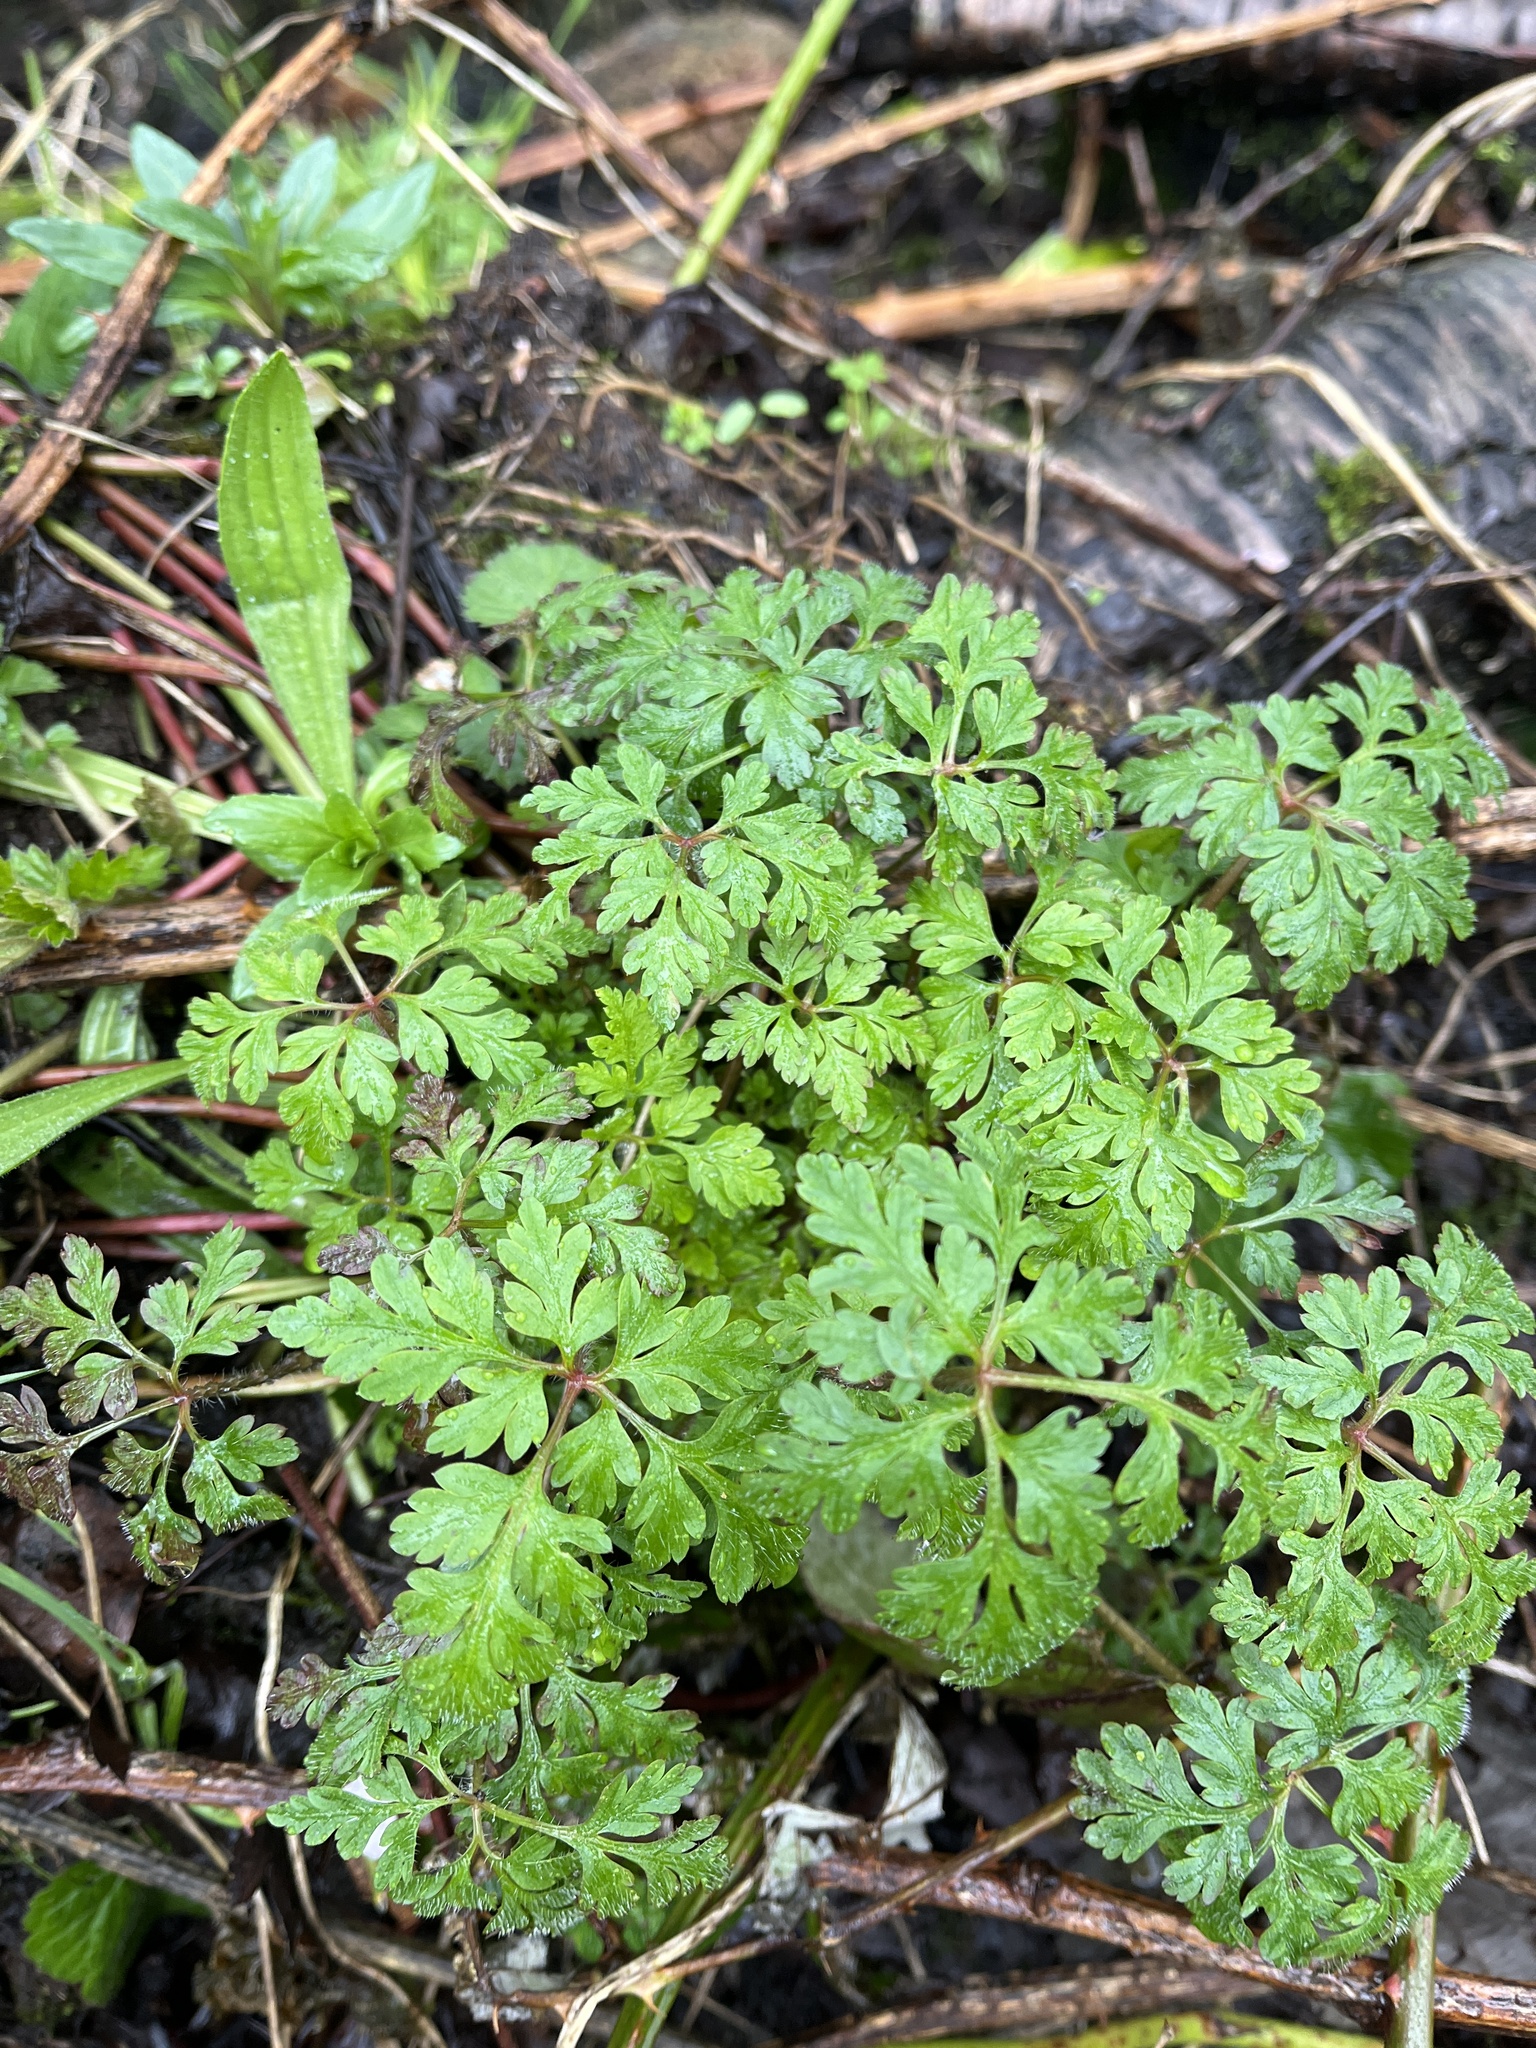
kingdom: Plantae
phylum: Tracheophyta
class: Magnoliopsida
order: Geraniales
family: Geraniaceae
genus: Geranium
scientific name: Geranium robertianum
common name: Herb-robert
